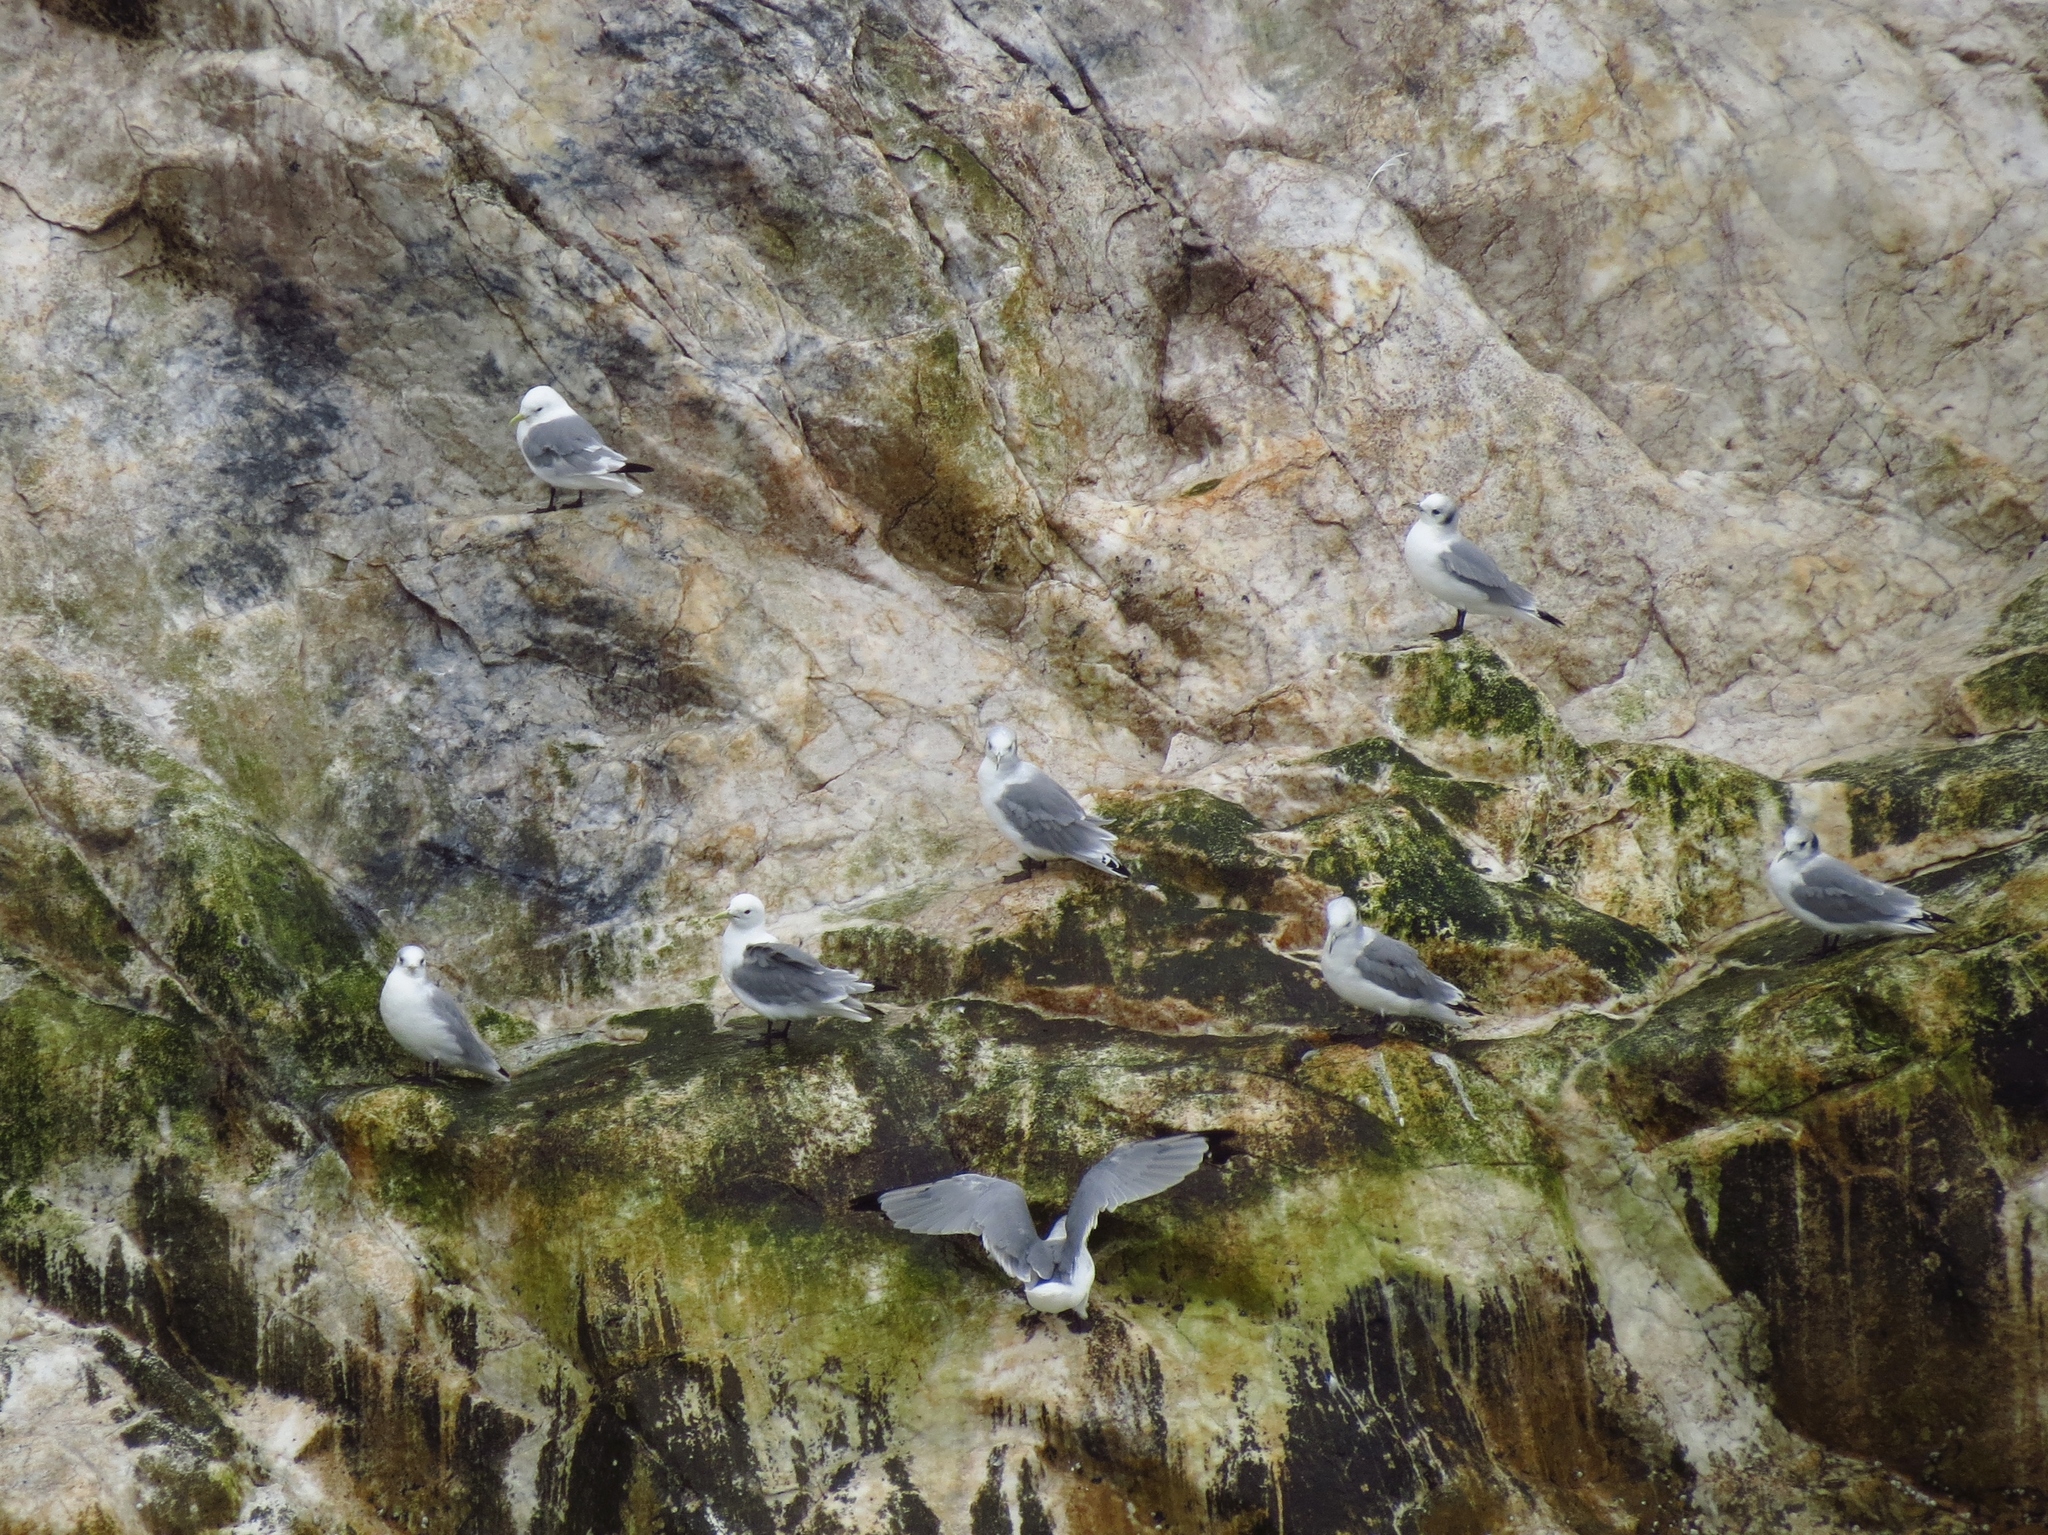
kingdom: Animalia
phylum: Chordata
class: Aves
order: Charadriiformes
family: Laridae
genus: Rissa
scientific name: Rissa tridactyla
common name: Black-legged kittiwake
